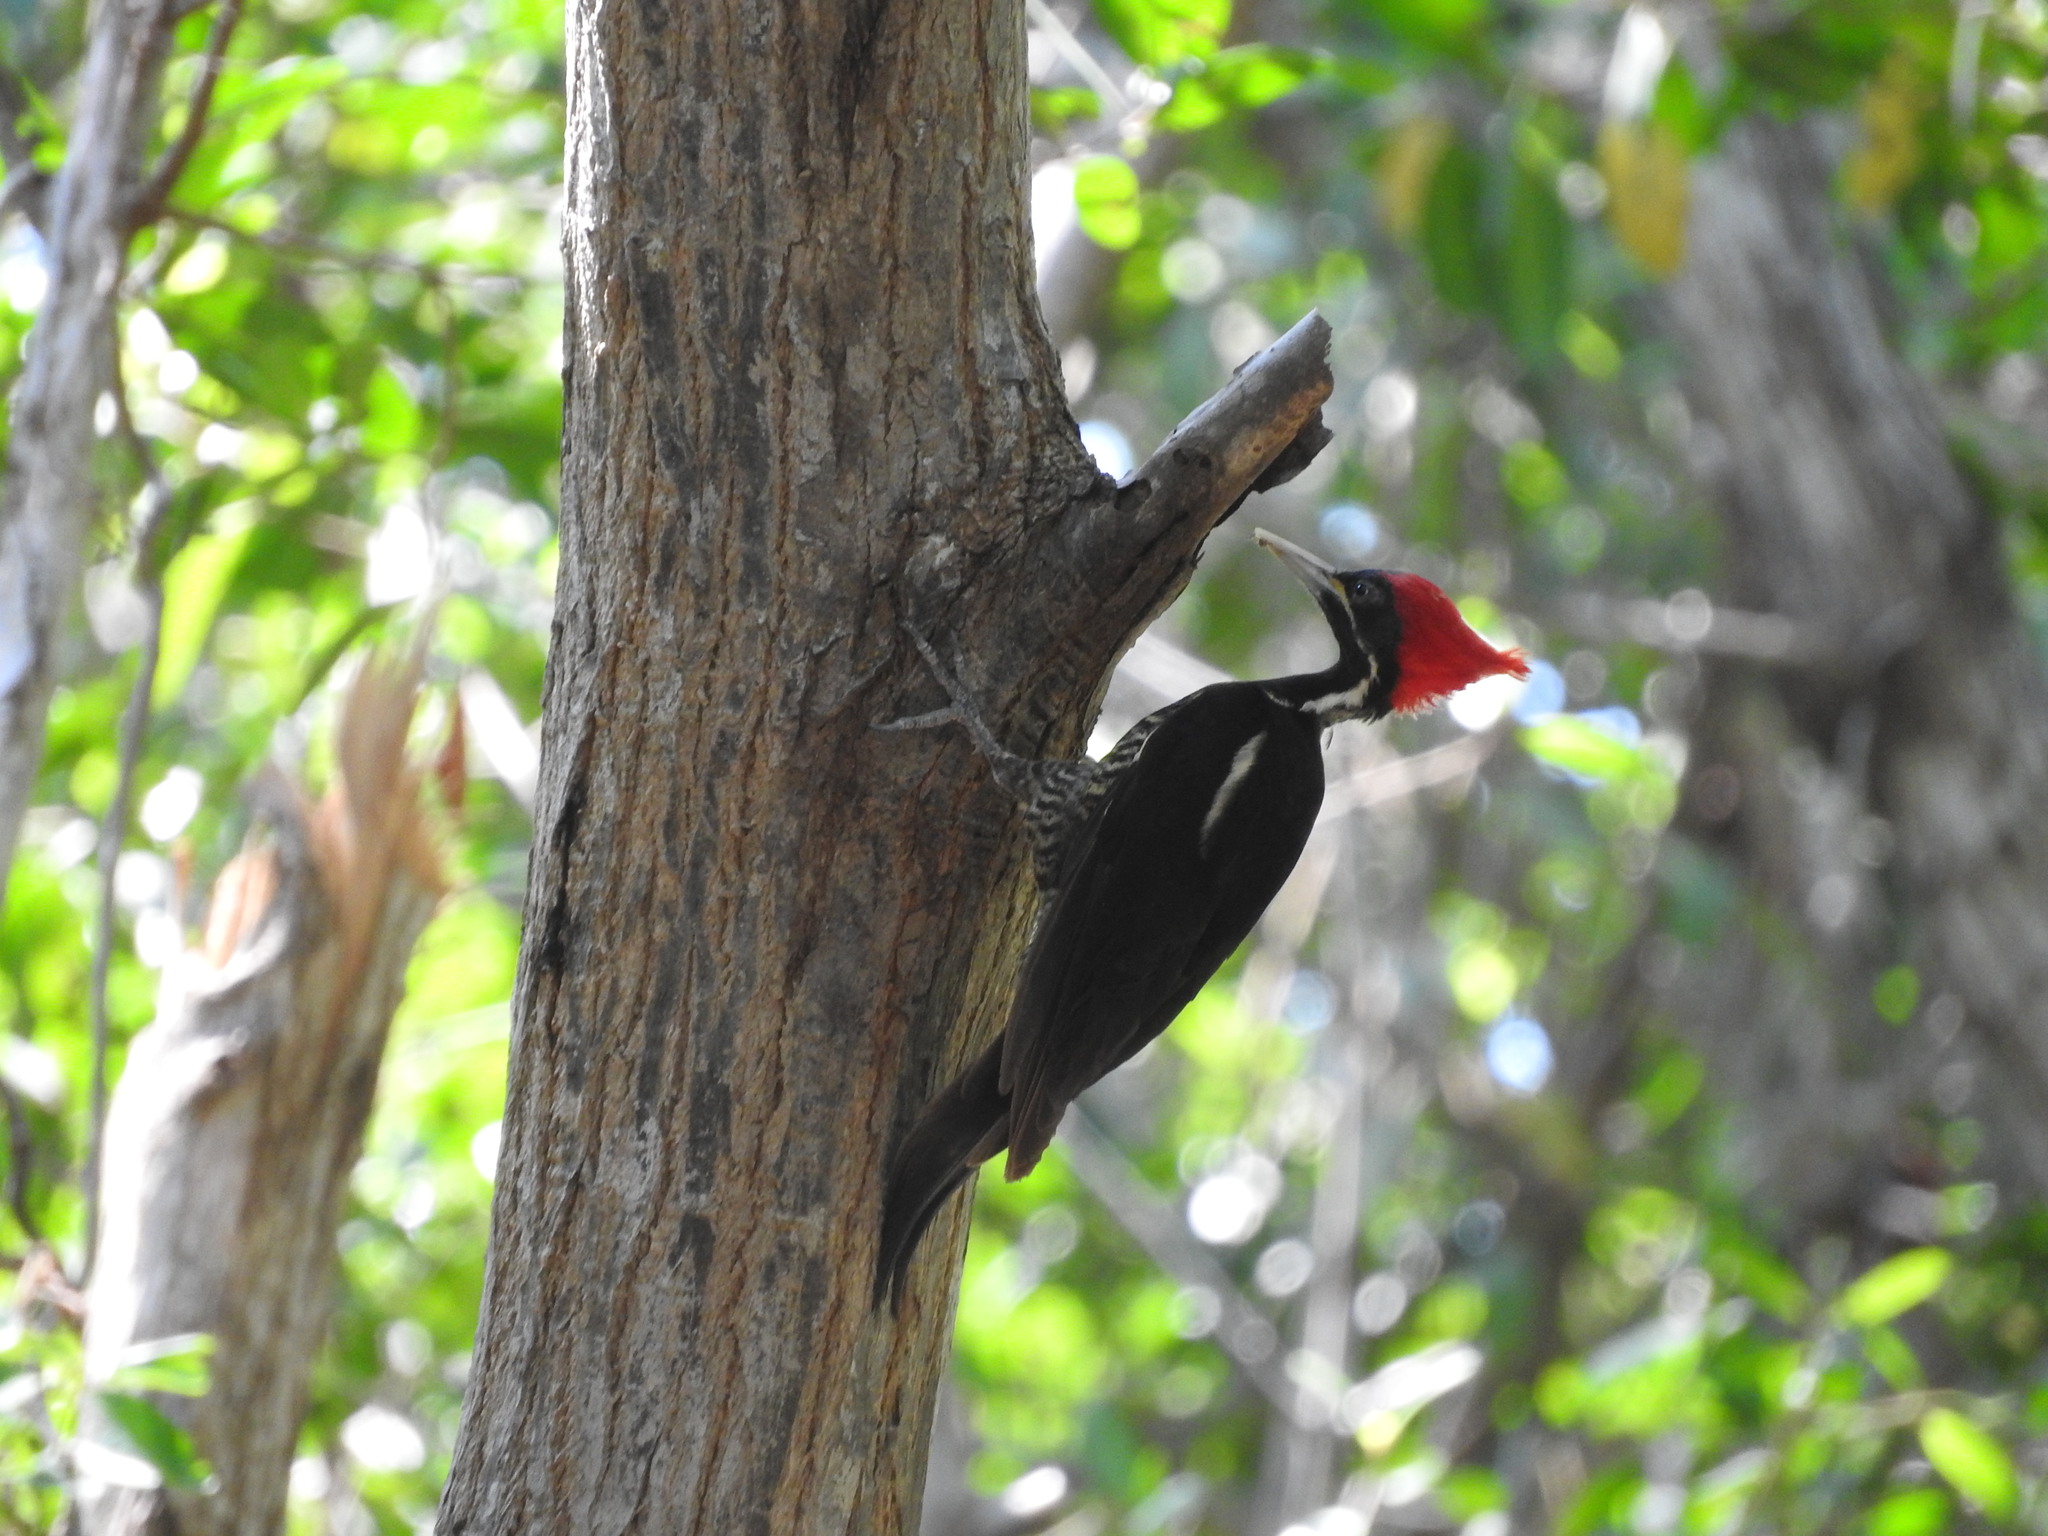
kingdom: Animalia
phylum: Chordata
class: Aves
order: Piciformes
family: Picidae
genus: Dryocopus
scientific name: Dryocopus lineatus
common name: Lineated woodpecker
